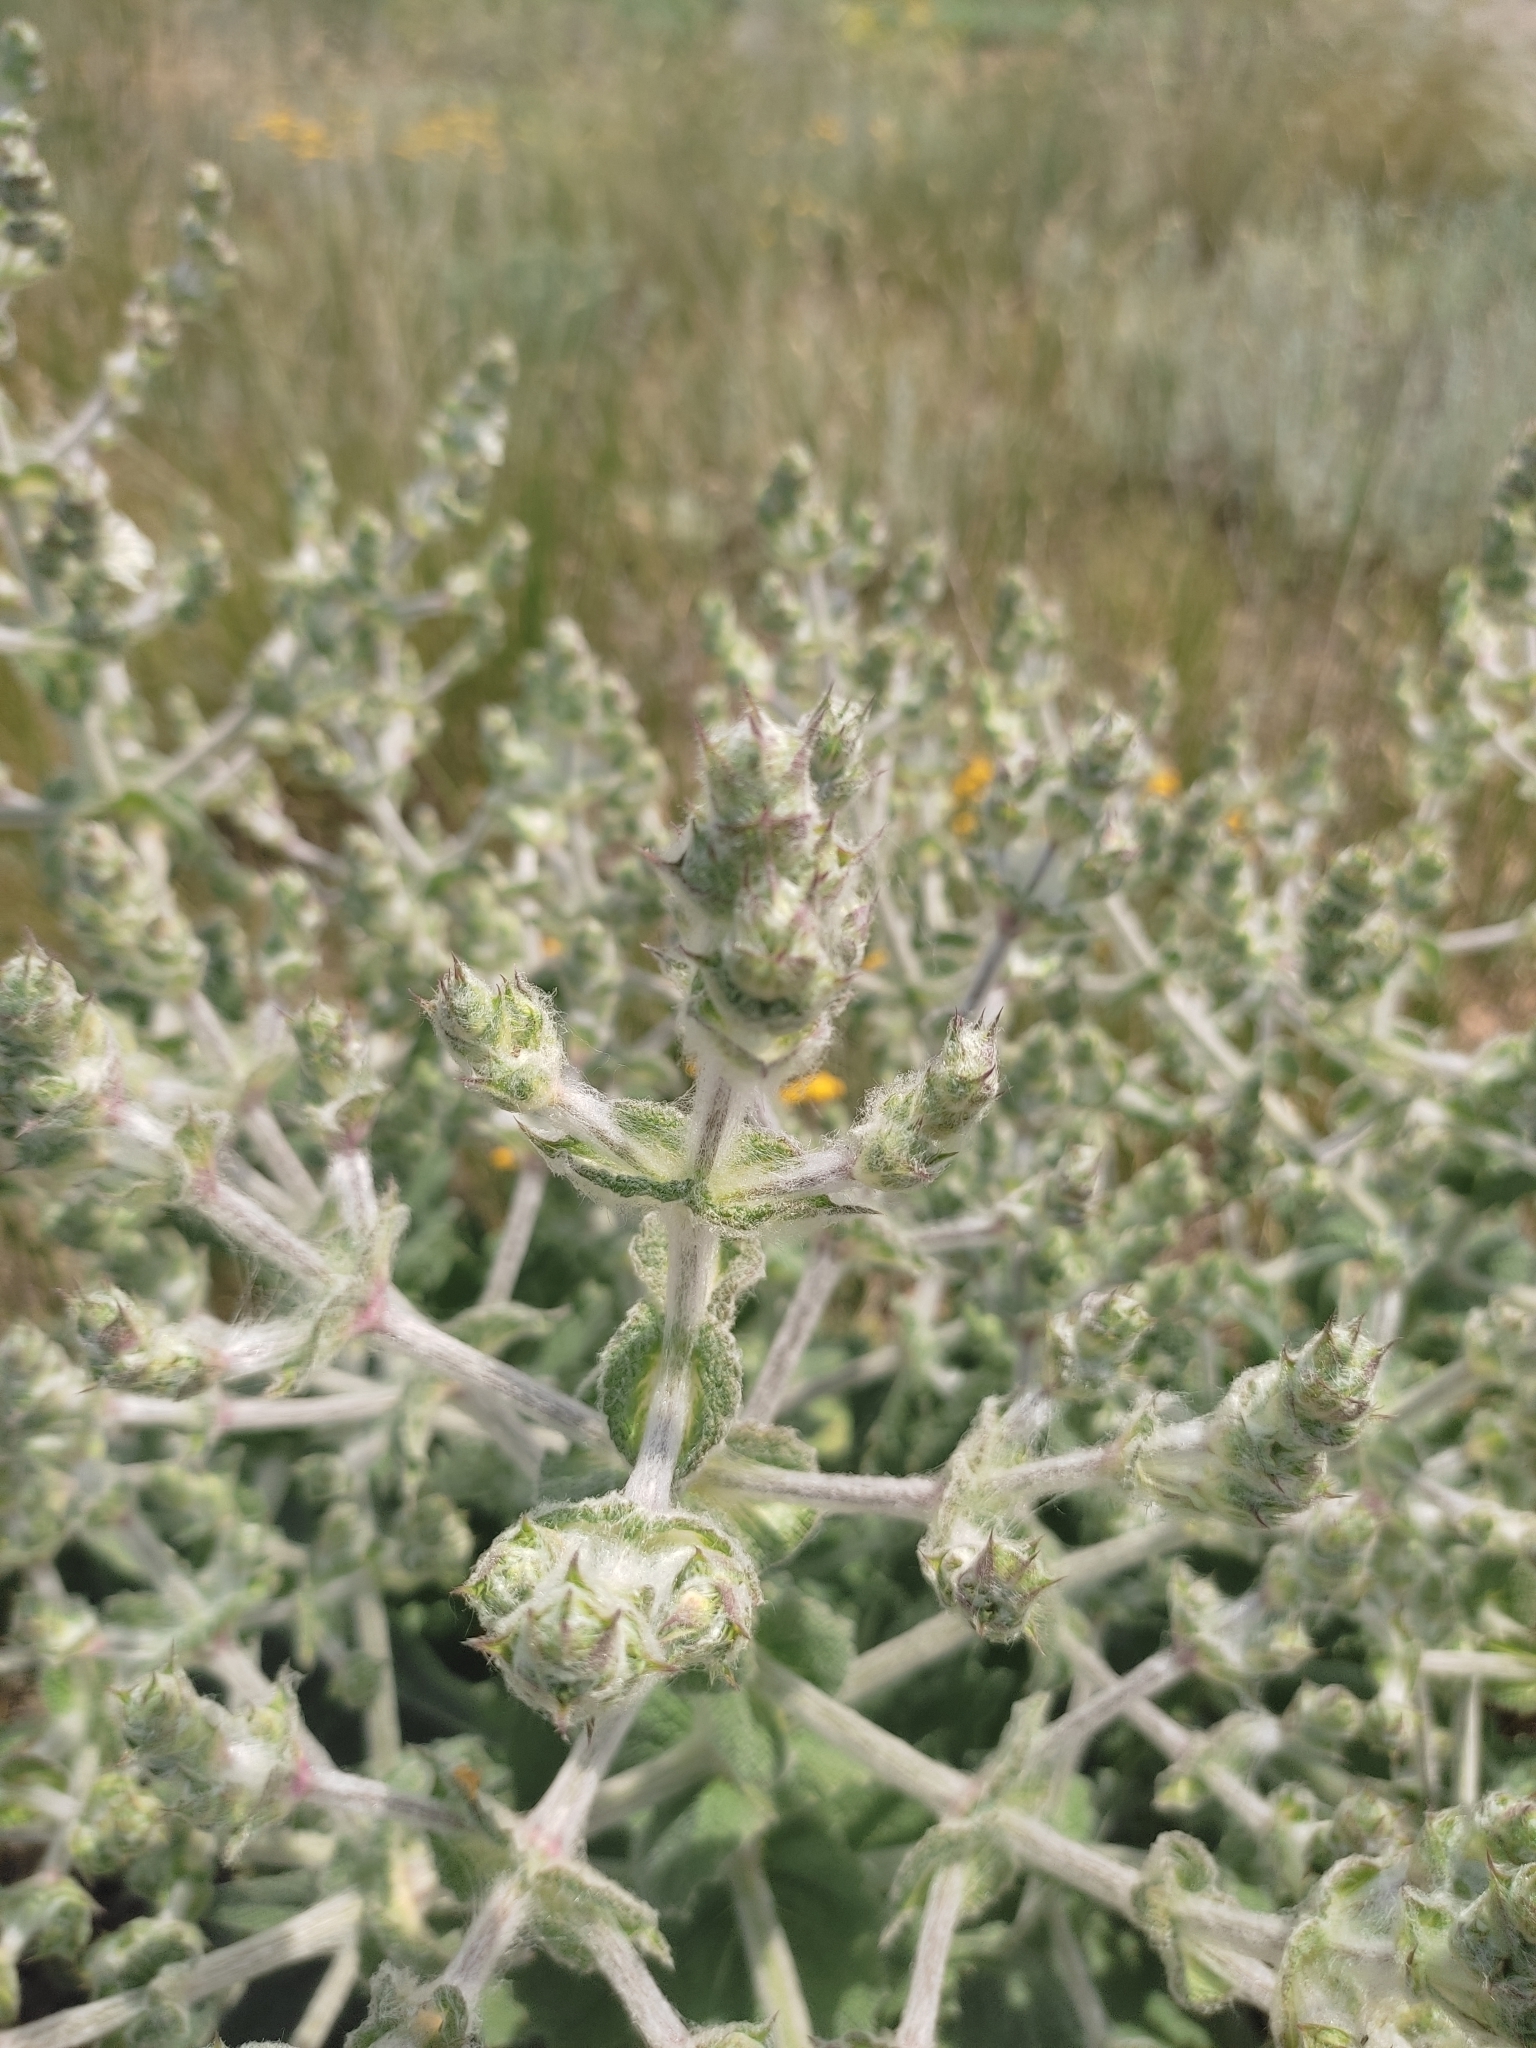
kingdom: Plantae
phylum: Tracheophyta
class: Magnoliopsida
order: Lamiales
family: Lamiaceae
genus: Salvia
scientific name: Salvia aethiopis
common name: Mediterranean sage
